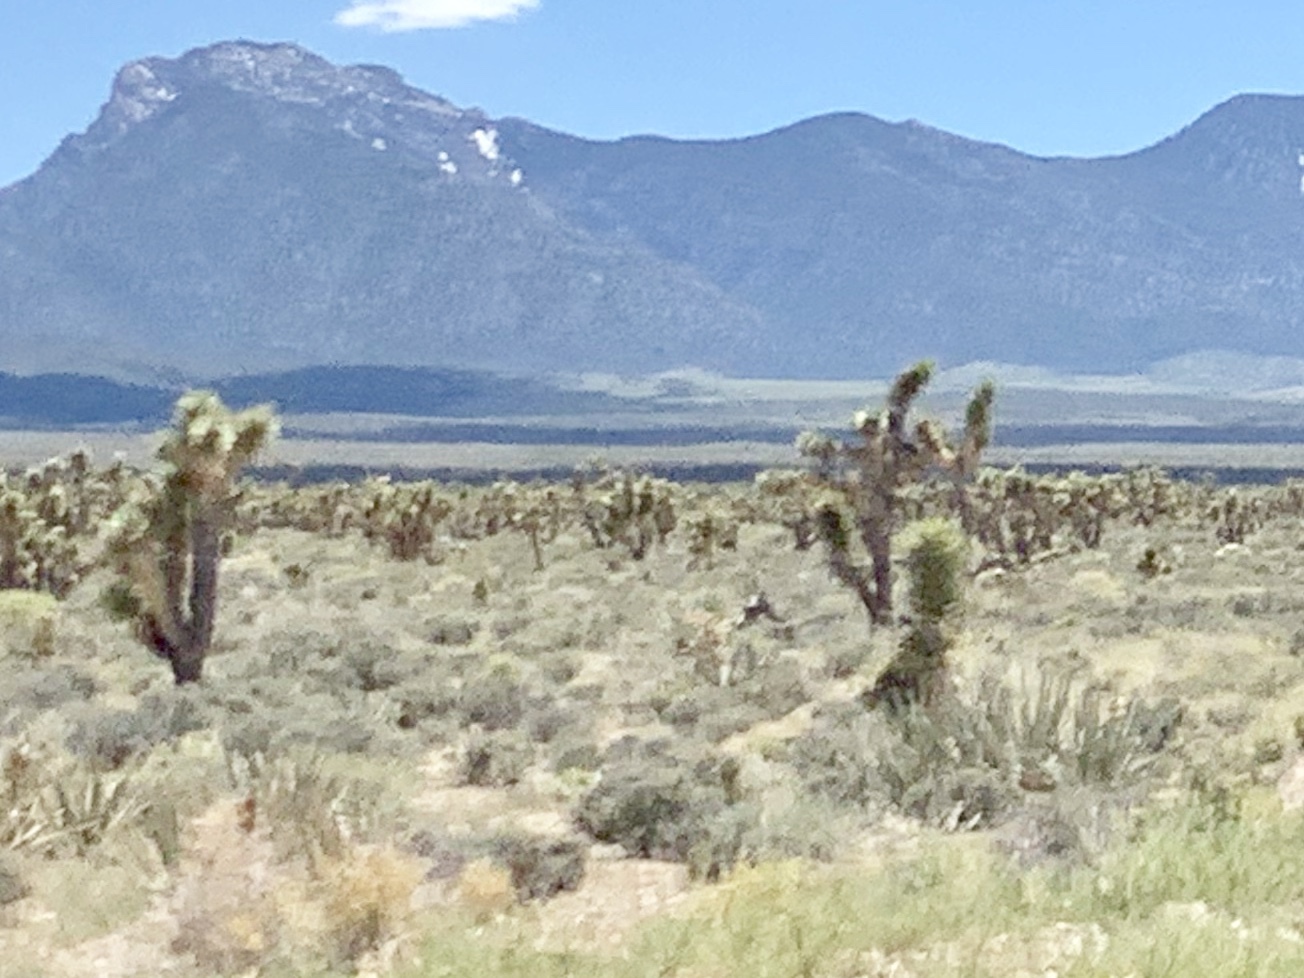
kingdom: Plantae
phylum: Tracheophyta
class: Liliopsida
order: Asparagales
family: Asparagaceae
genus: Yucca
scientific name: Yucca brevifolia
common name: Joshua tree
